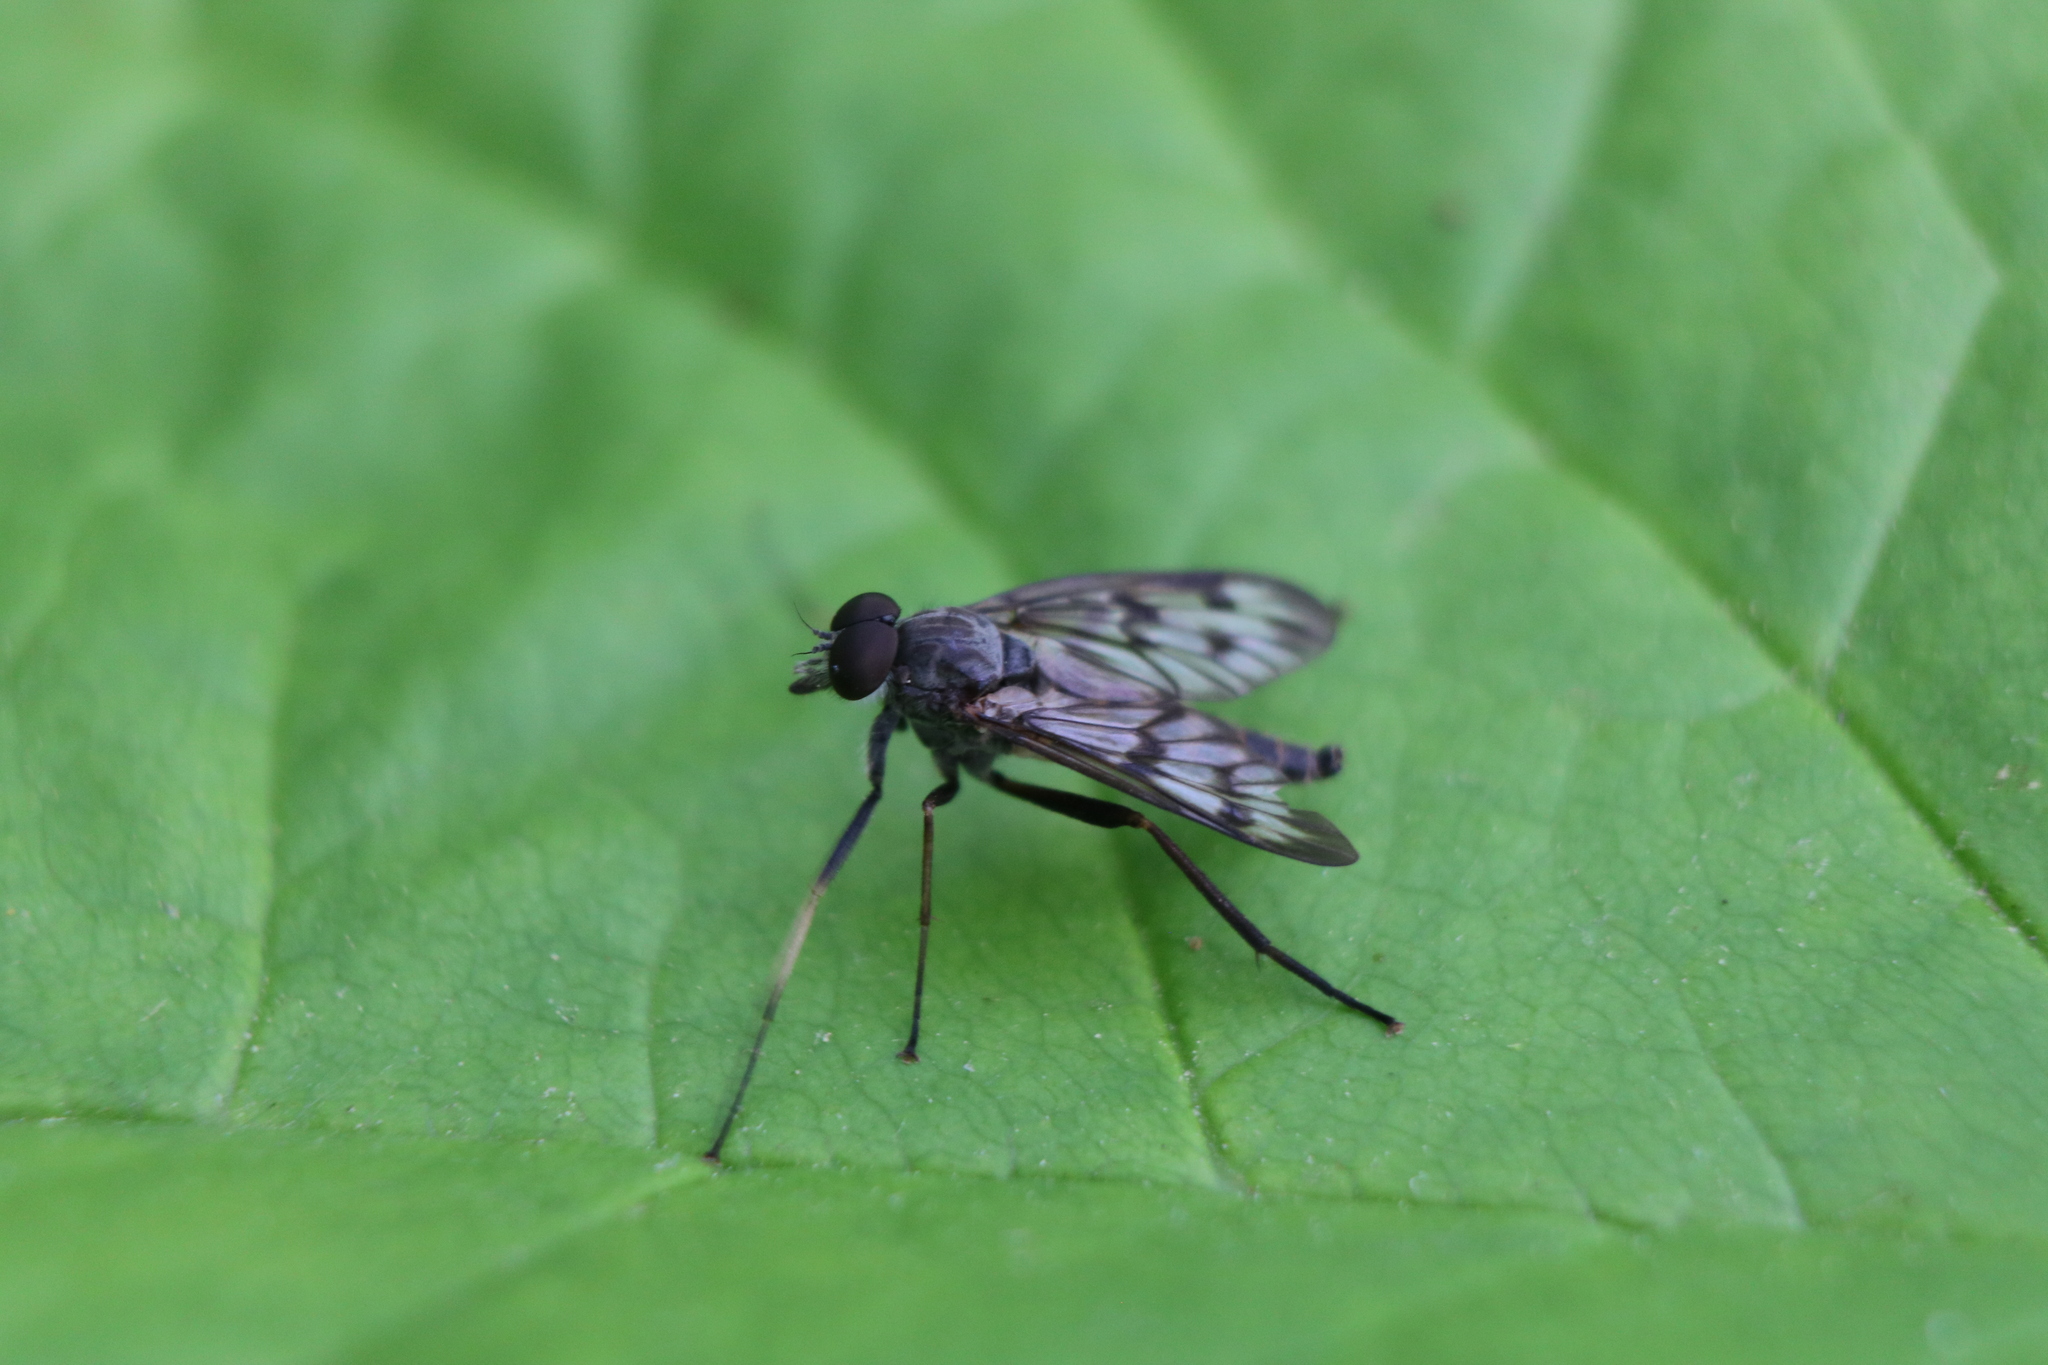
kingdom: Animalia
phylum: Arthropoda
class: Insecta
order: Diptera
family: Rhagionidae
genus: Rhagio
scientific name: Rhagio mystaceus
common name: Common snipe fly
